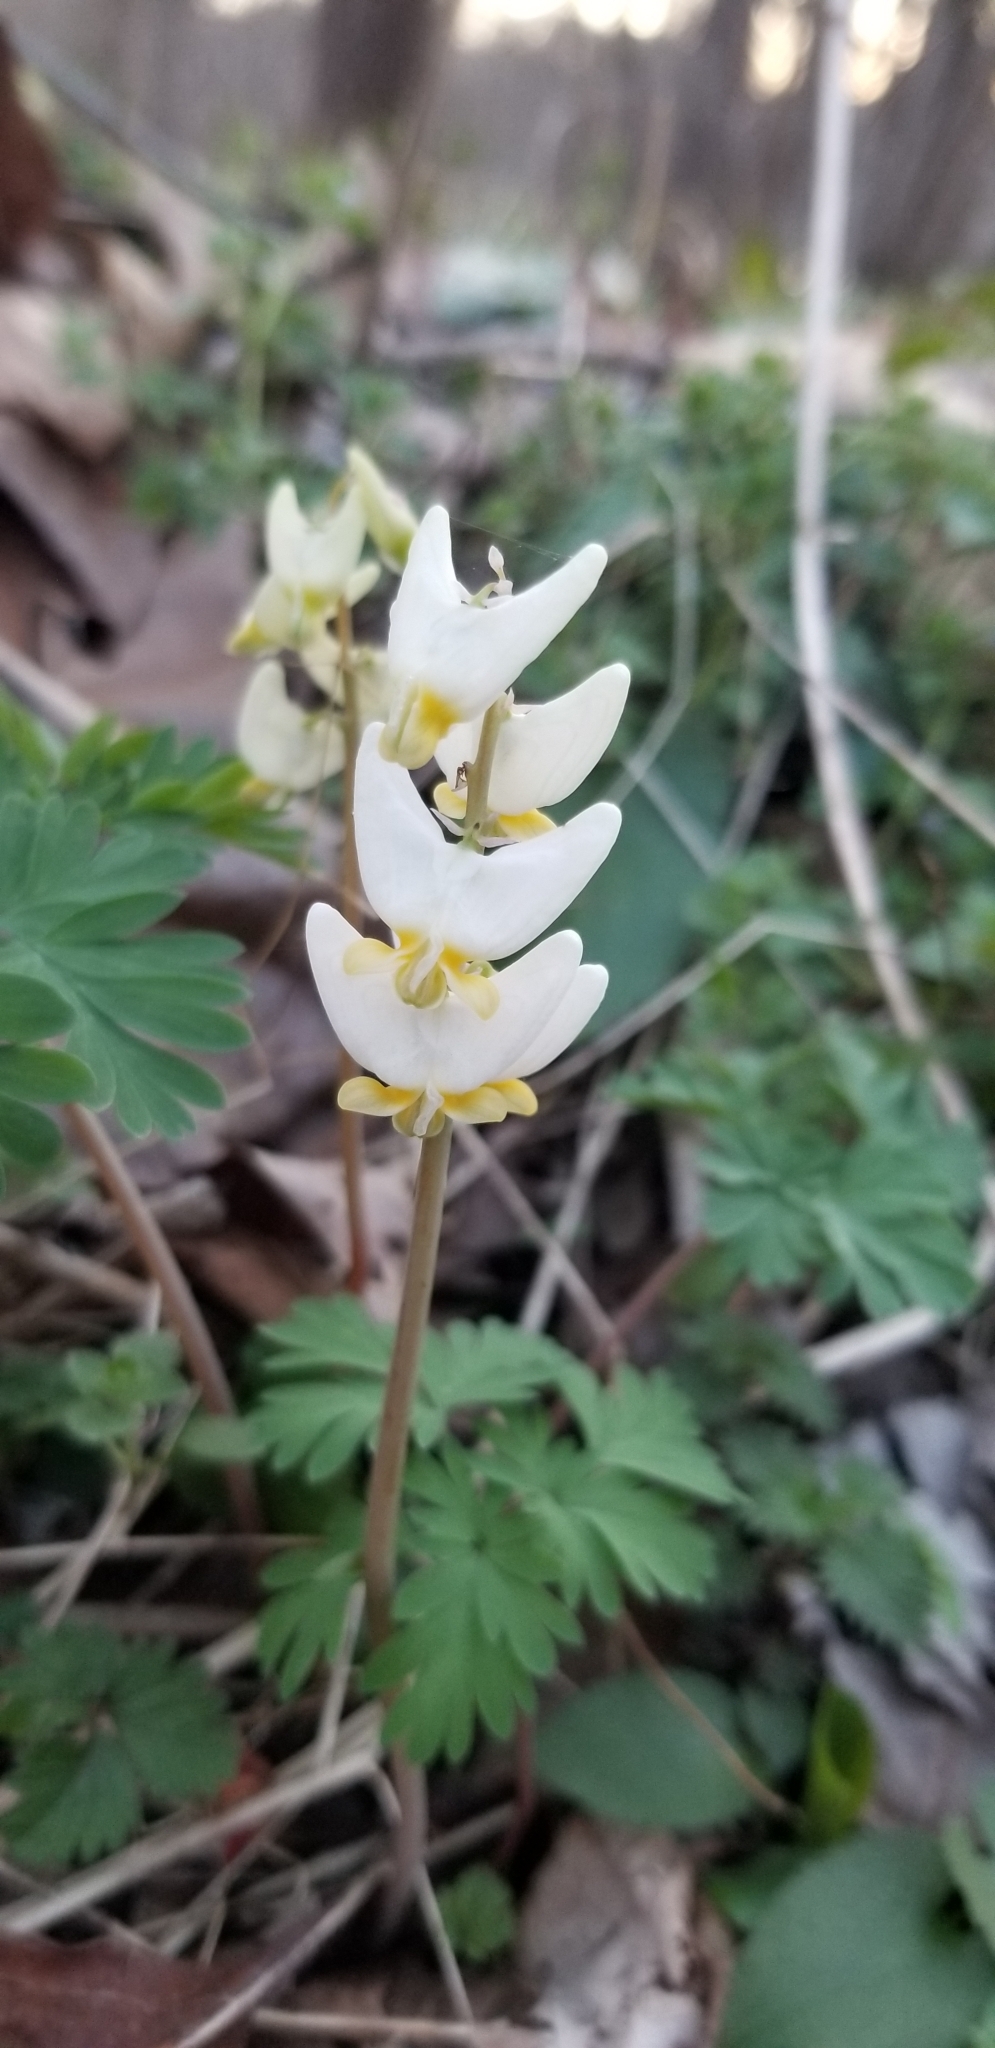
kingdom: Plantae
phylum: Tracheophyta
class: Magnoliopsida
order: Ranunculales
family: Papaveraceae
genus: Dicentra
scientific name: Dicentra cucullaria
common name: Dutchman's breeches
